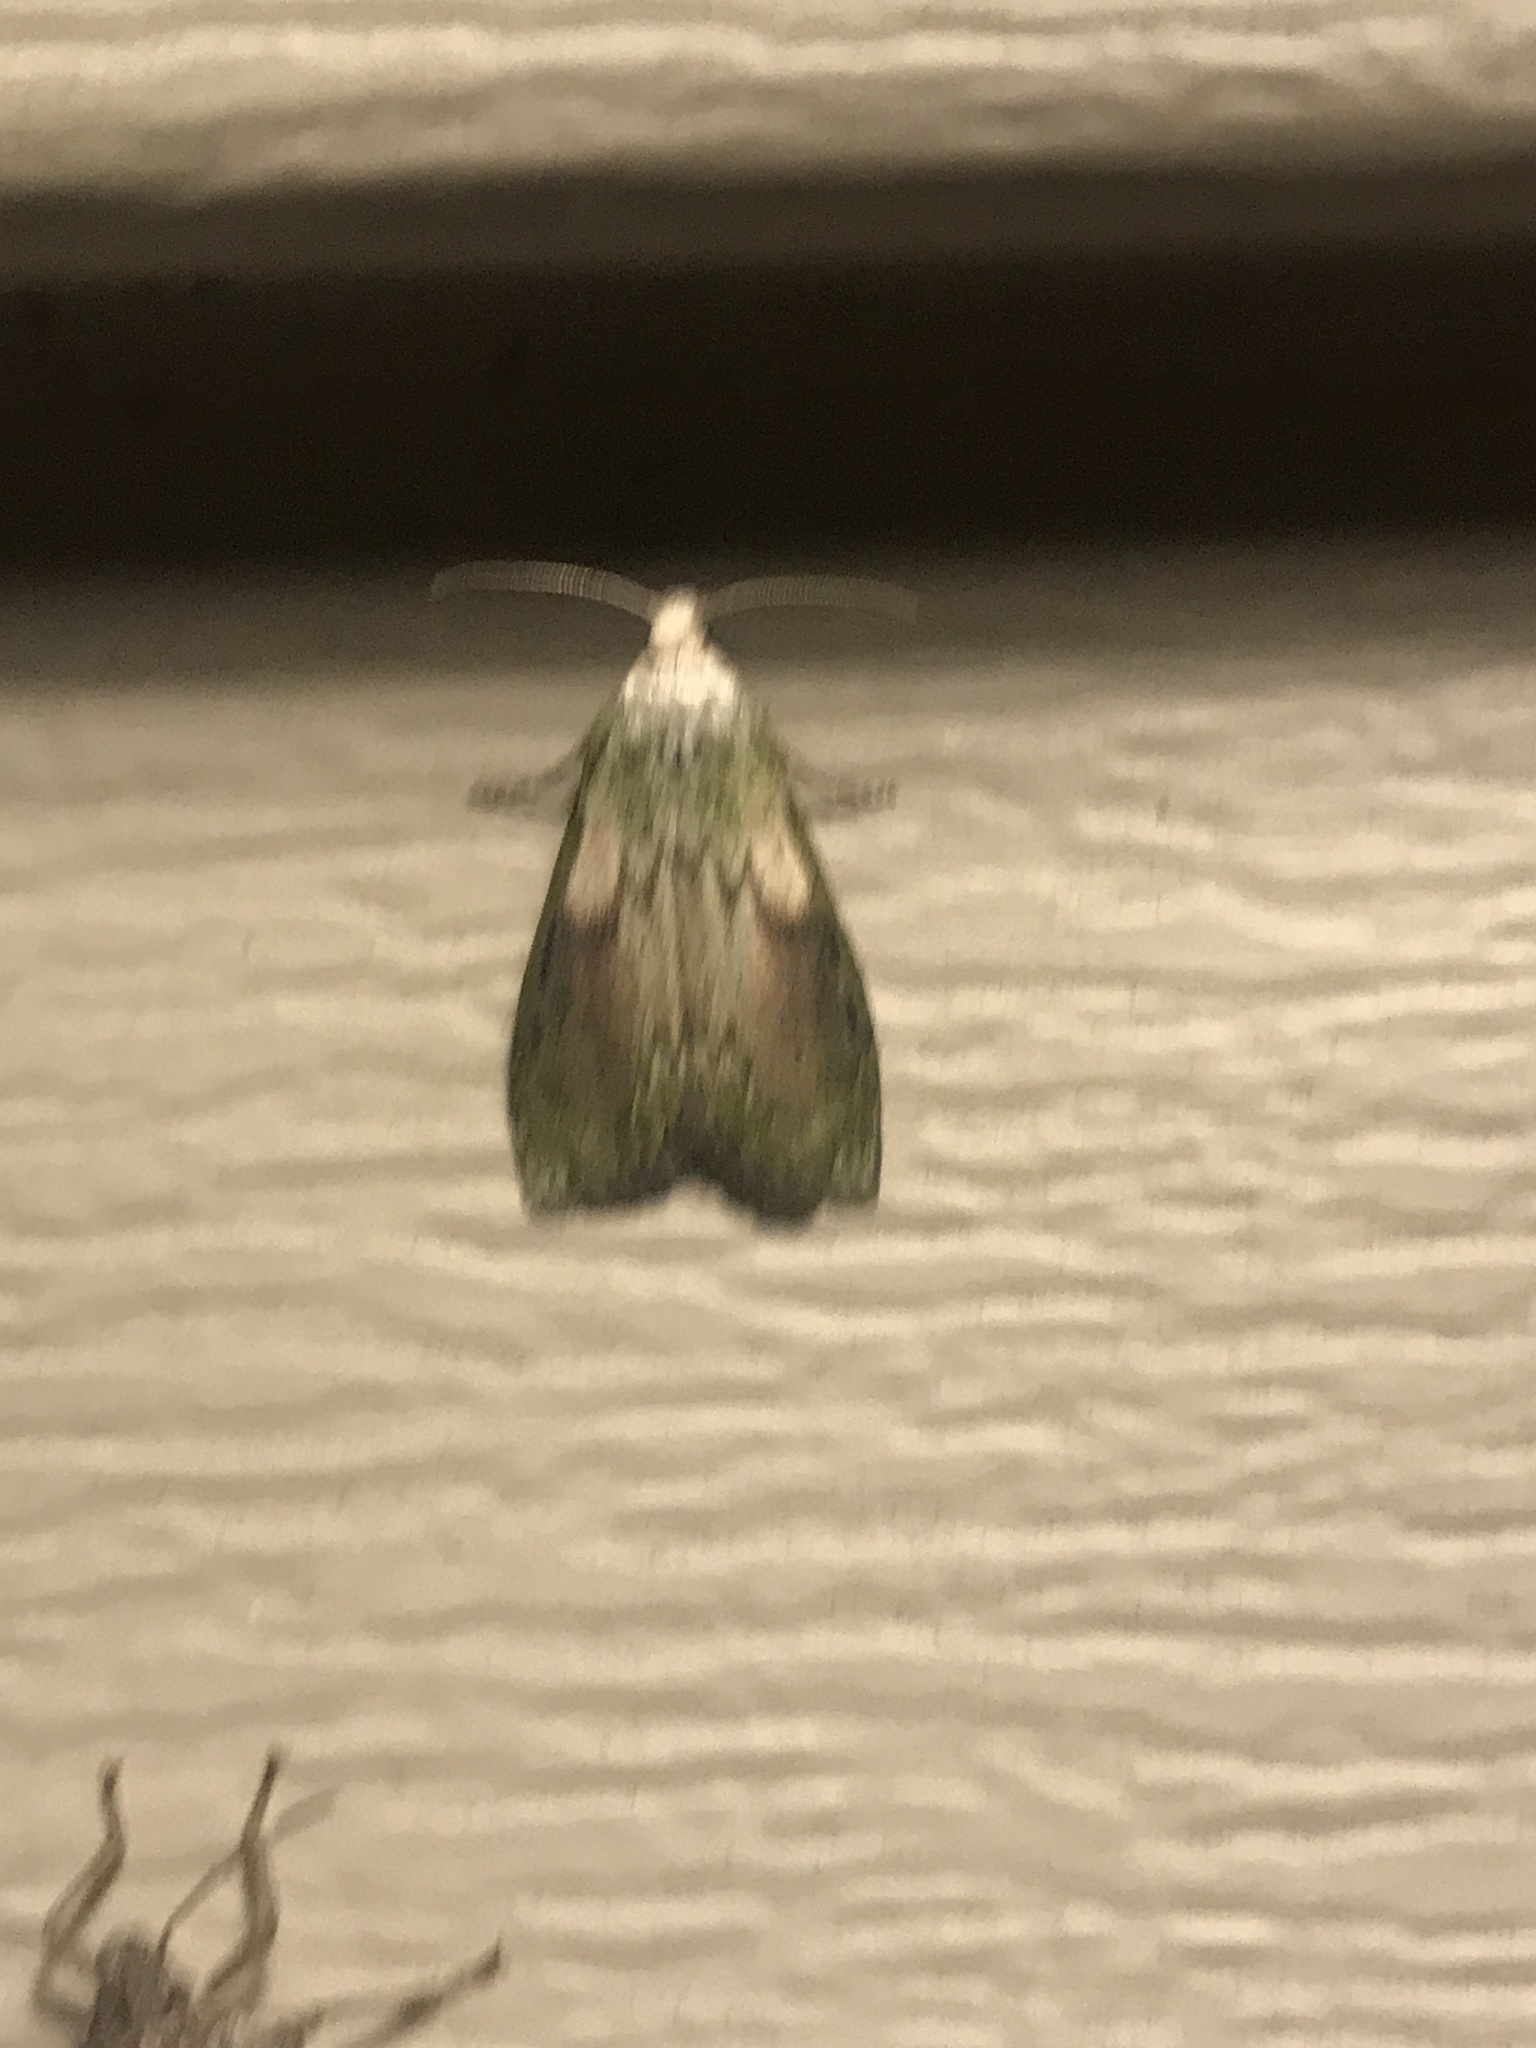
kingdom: Animalia
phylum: Arthropoda
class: Insecta
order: Lepidoptera
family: Pyralidae
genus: Aphomia
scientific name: Aphomia sociella
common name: Bee moth
